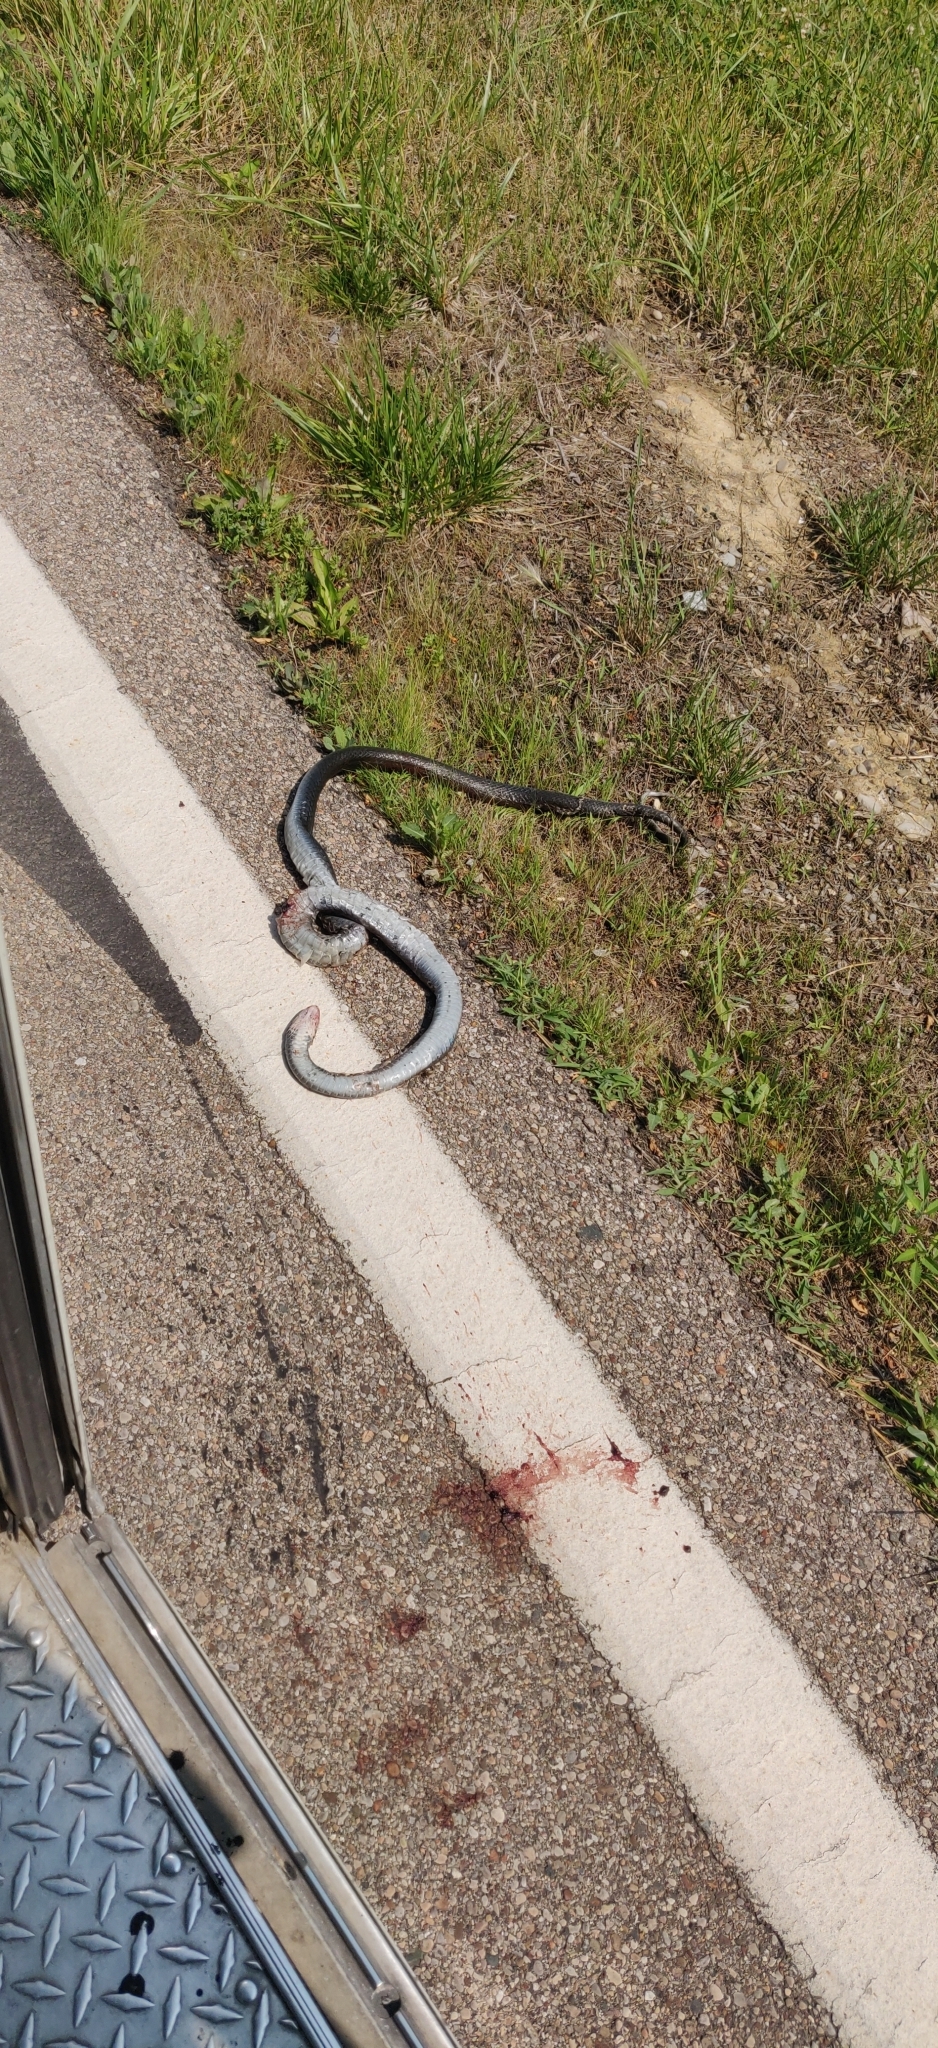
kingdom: Animalia
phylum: Chordata
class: Squamata
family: Colubridae
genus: Coluber
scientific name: Coluber constrictor
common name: Eastern racer
